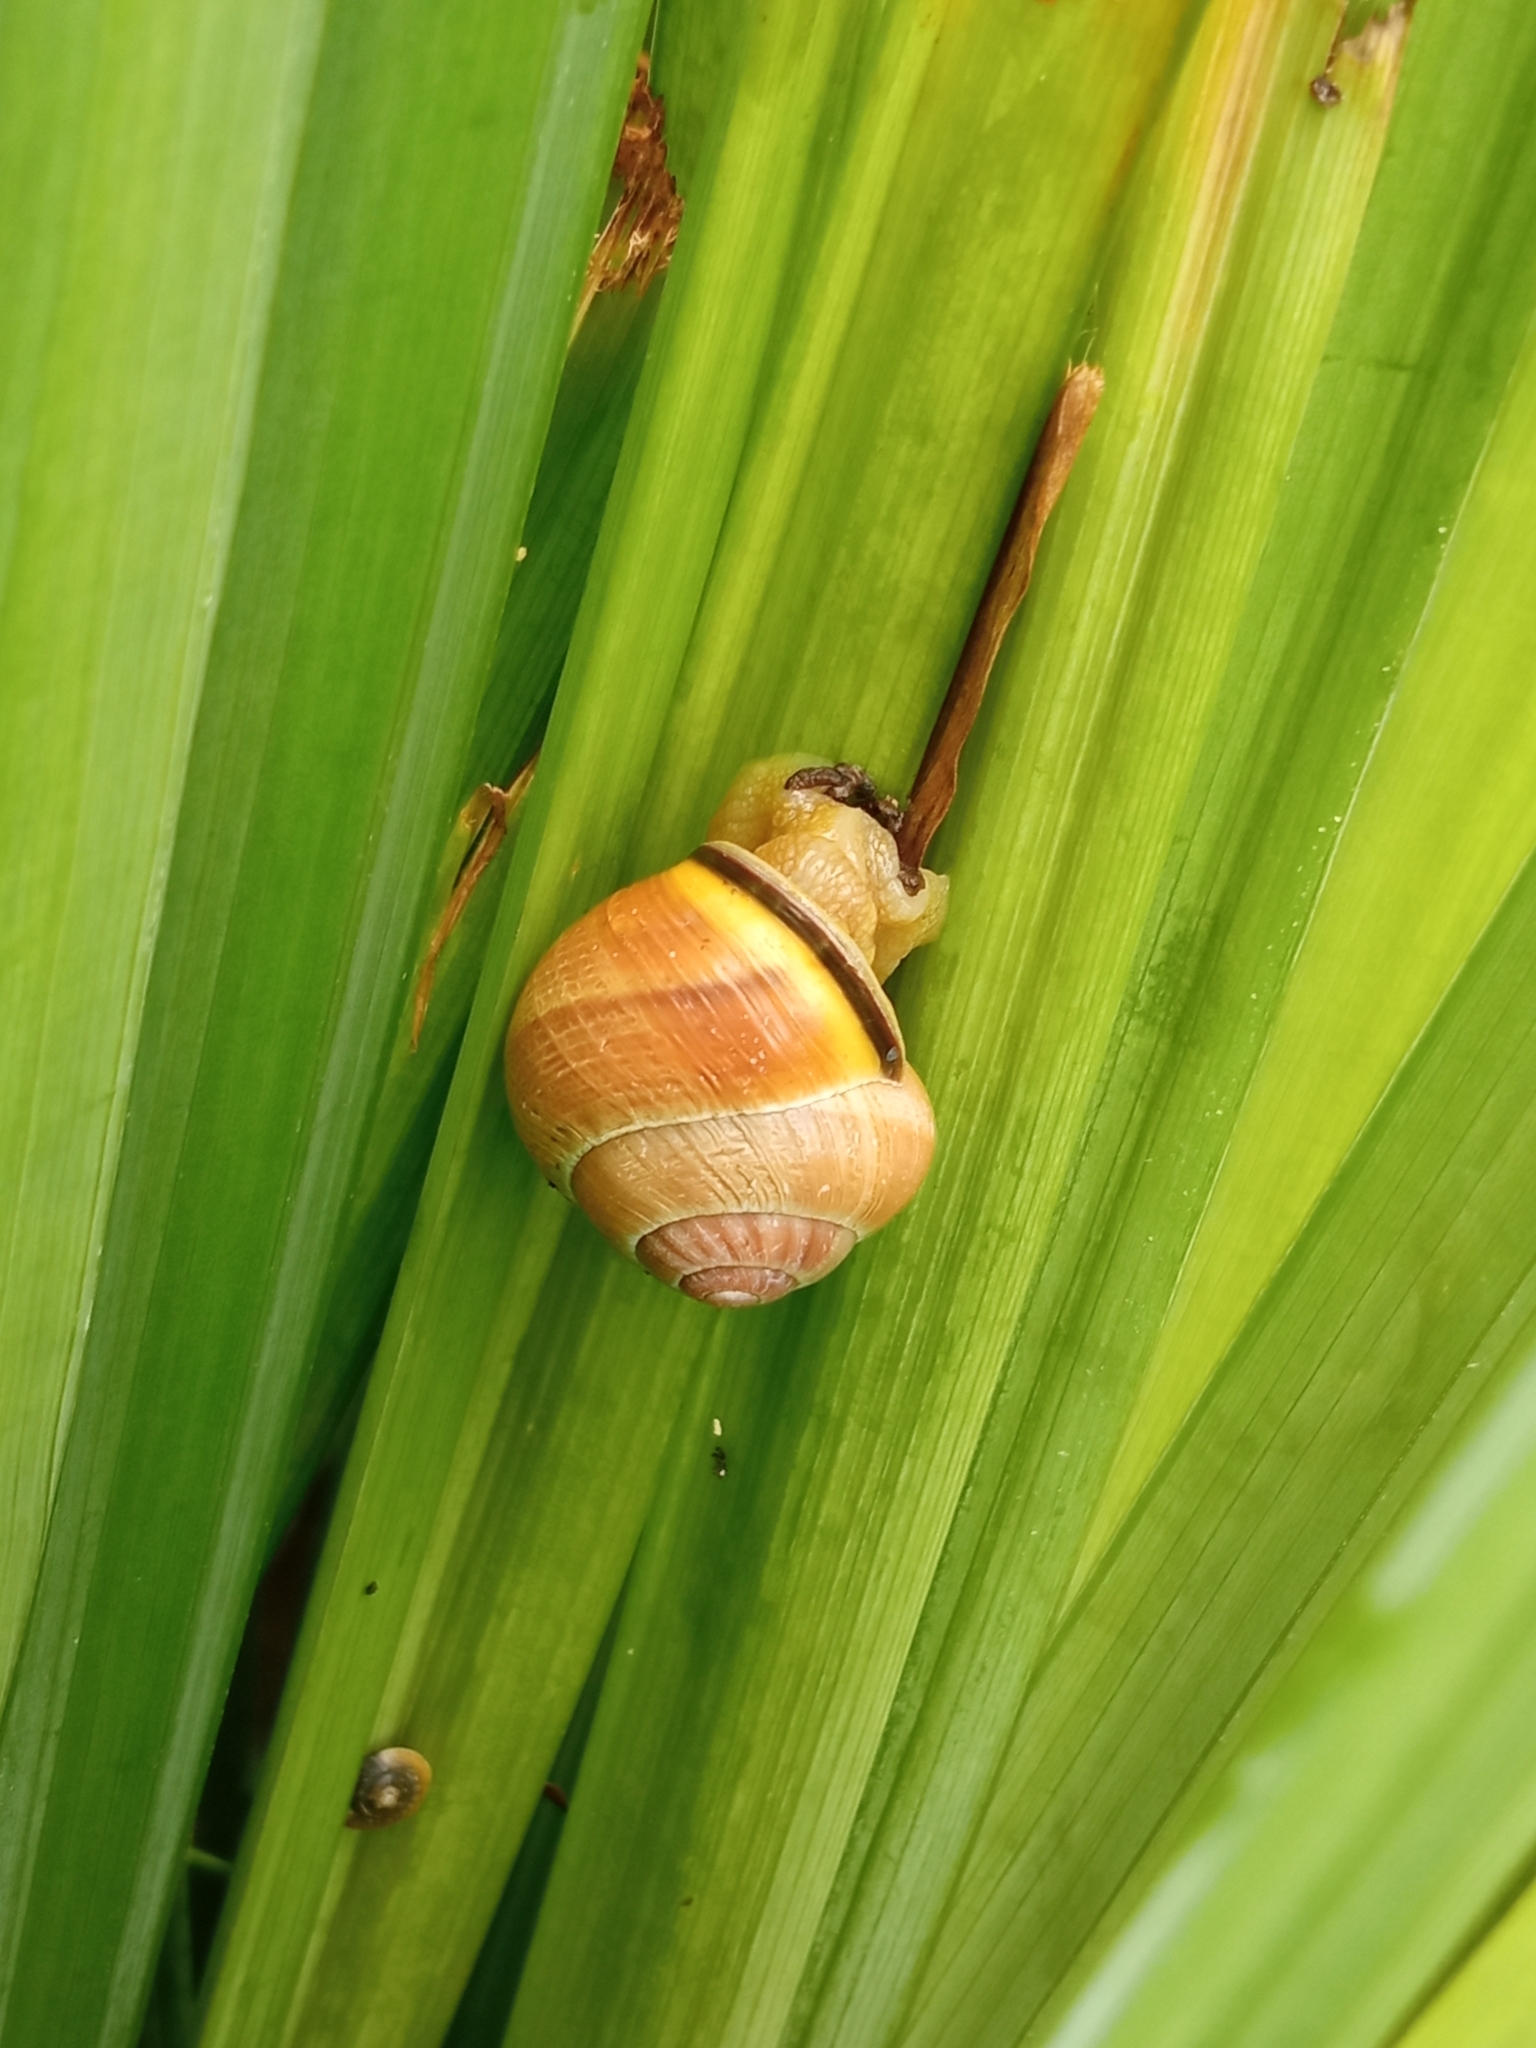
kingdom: Animalia
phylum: Mollusca
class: Gastropoda
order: Stylommatophora
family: Helicidae
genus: Cepaea
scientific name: Cepaea nemoralis
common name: Grovesnail
